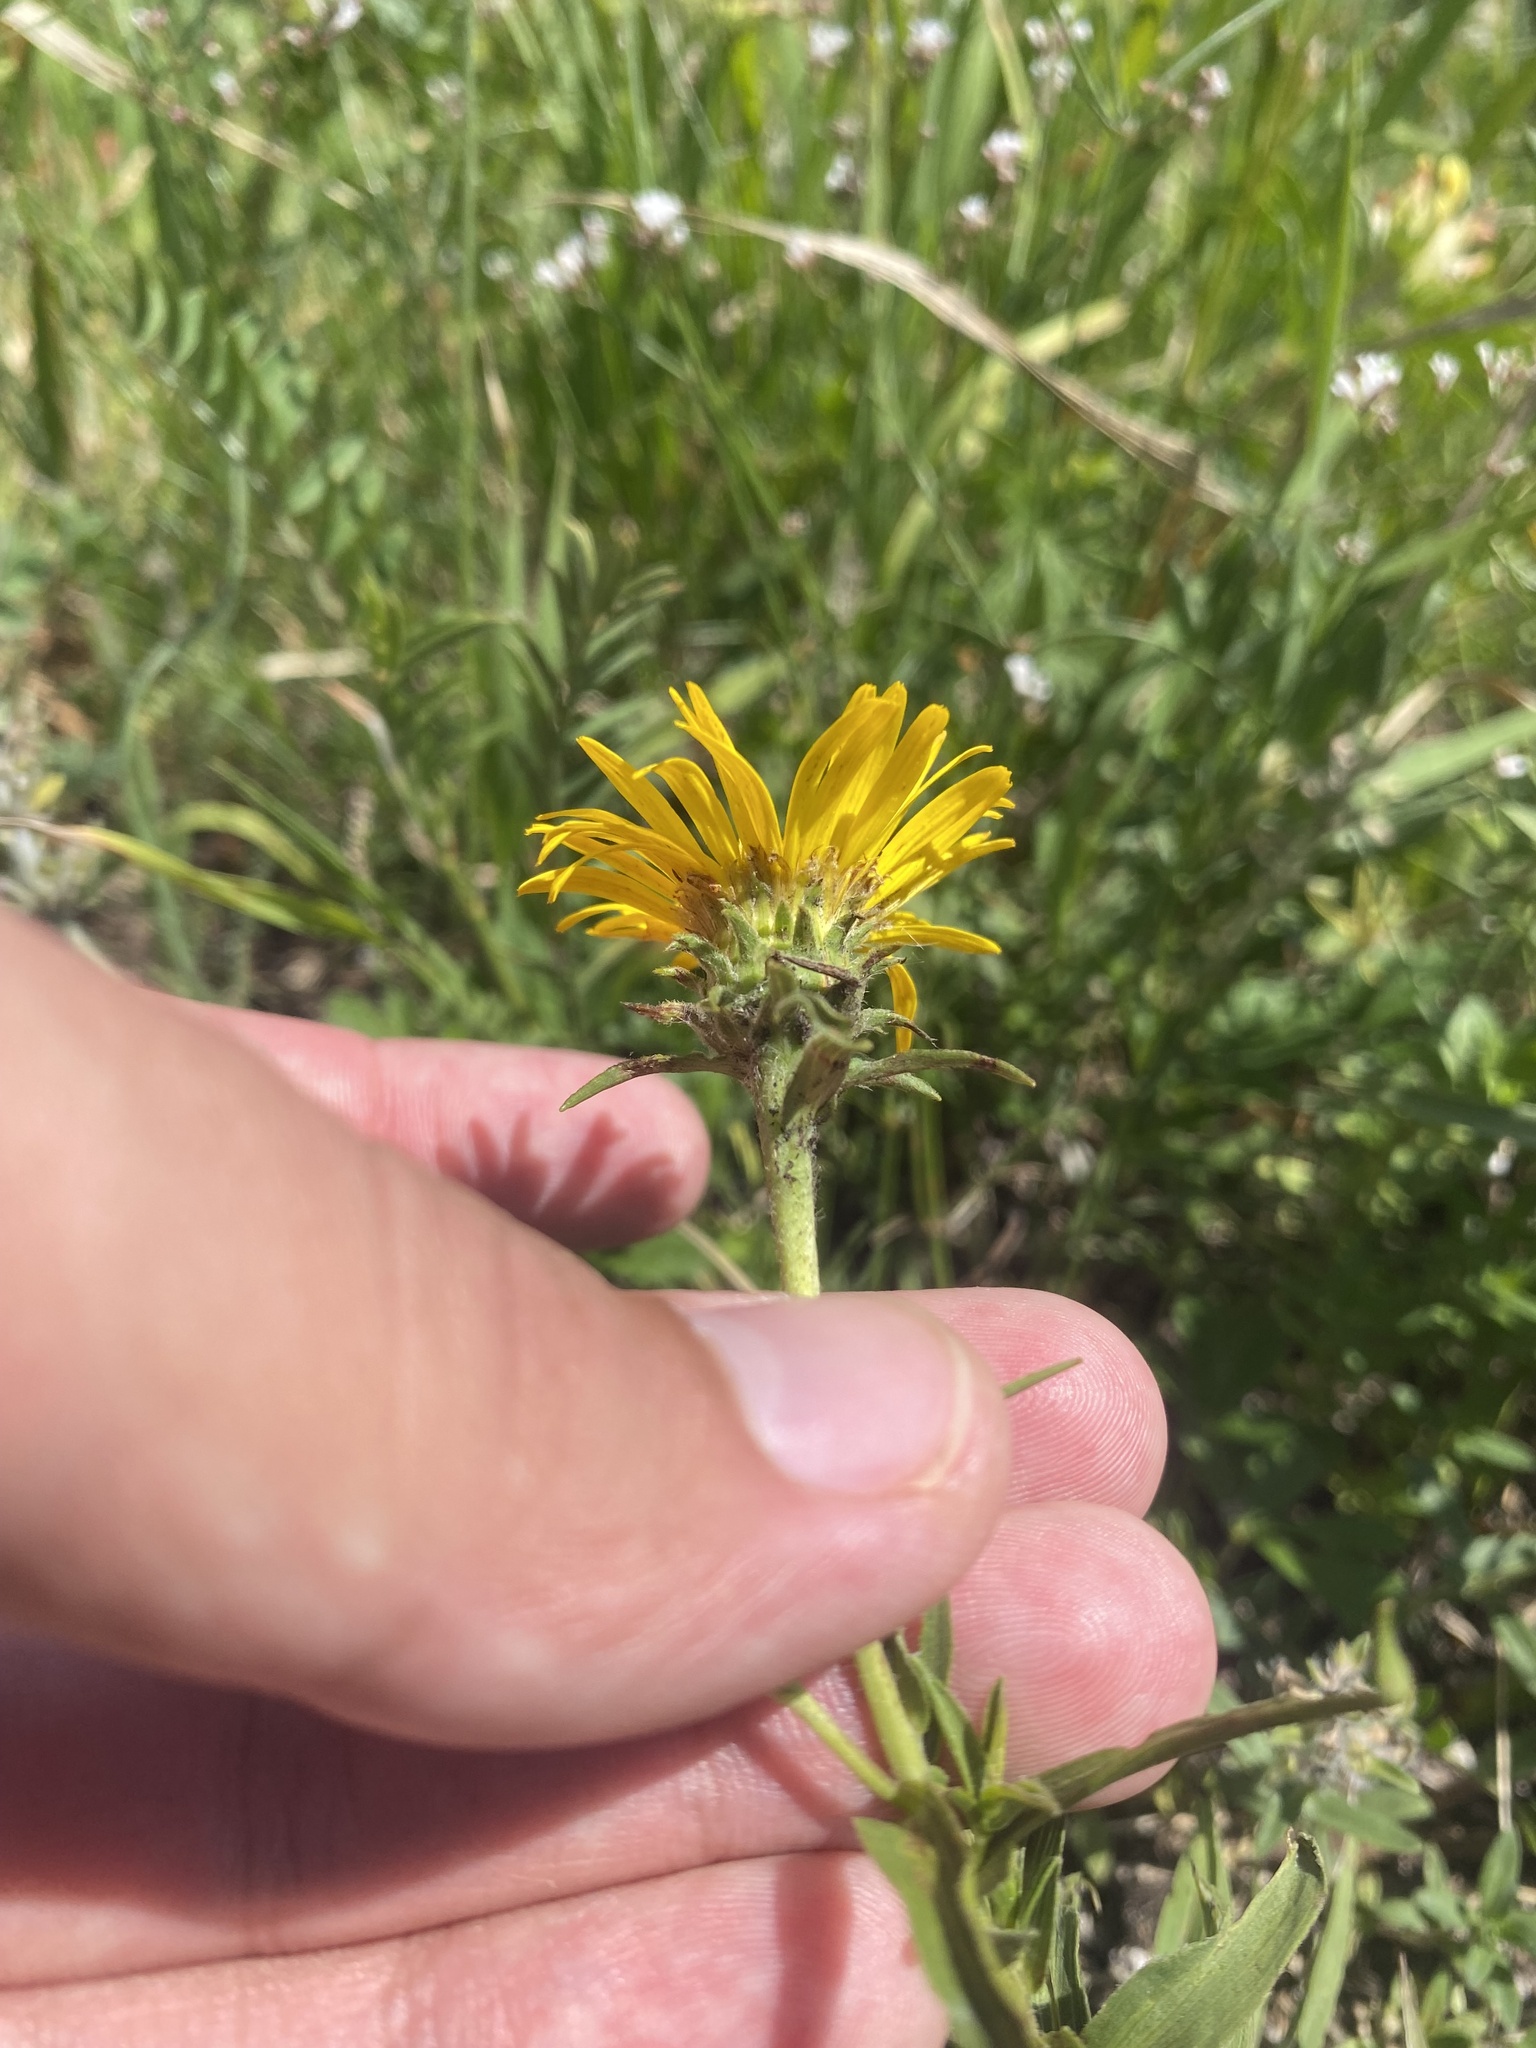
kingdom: Plantae
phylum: Tracheophyta
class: Magnoliopsida
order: Asterales
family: Asteraceae
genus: Pentanema
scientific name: Pentanema ensifolium
